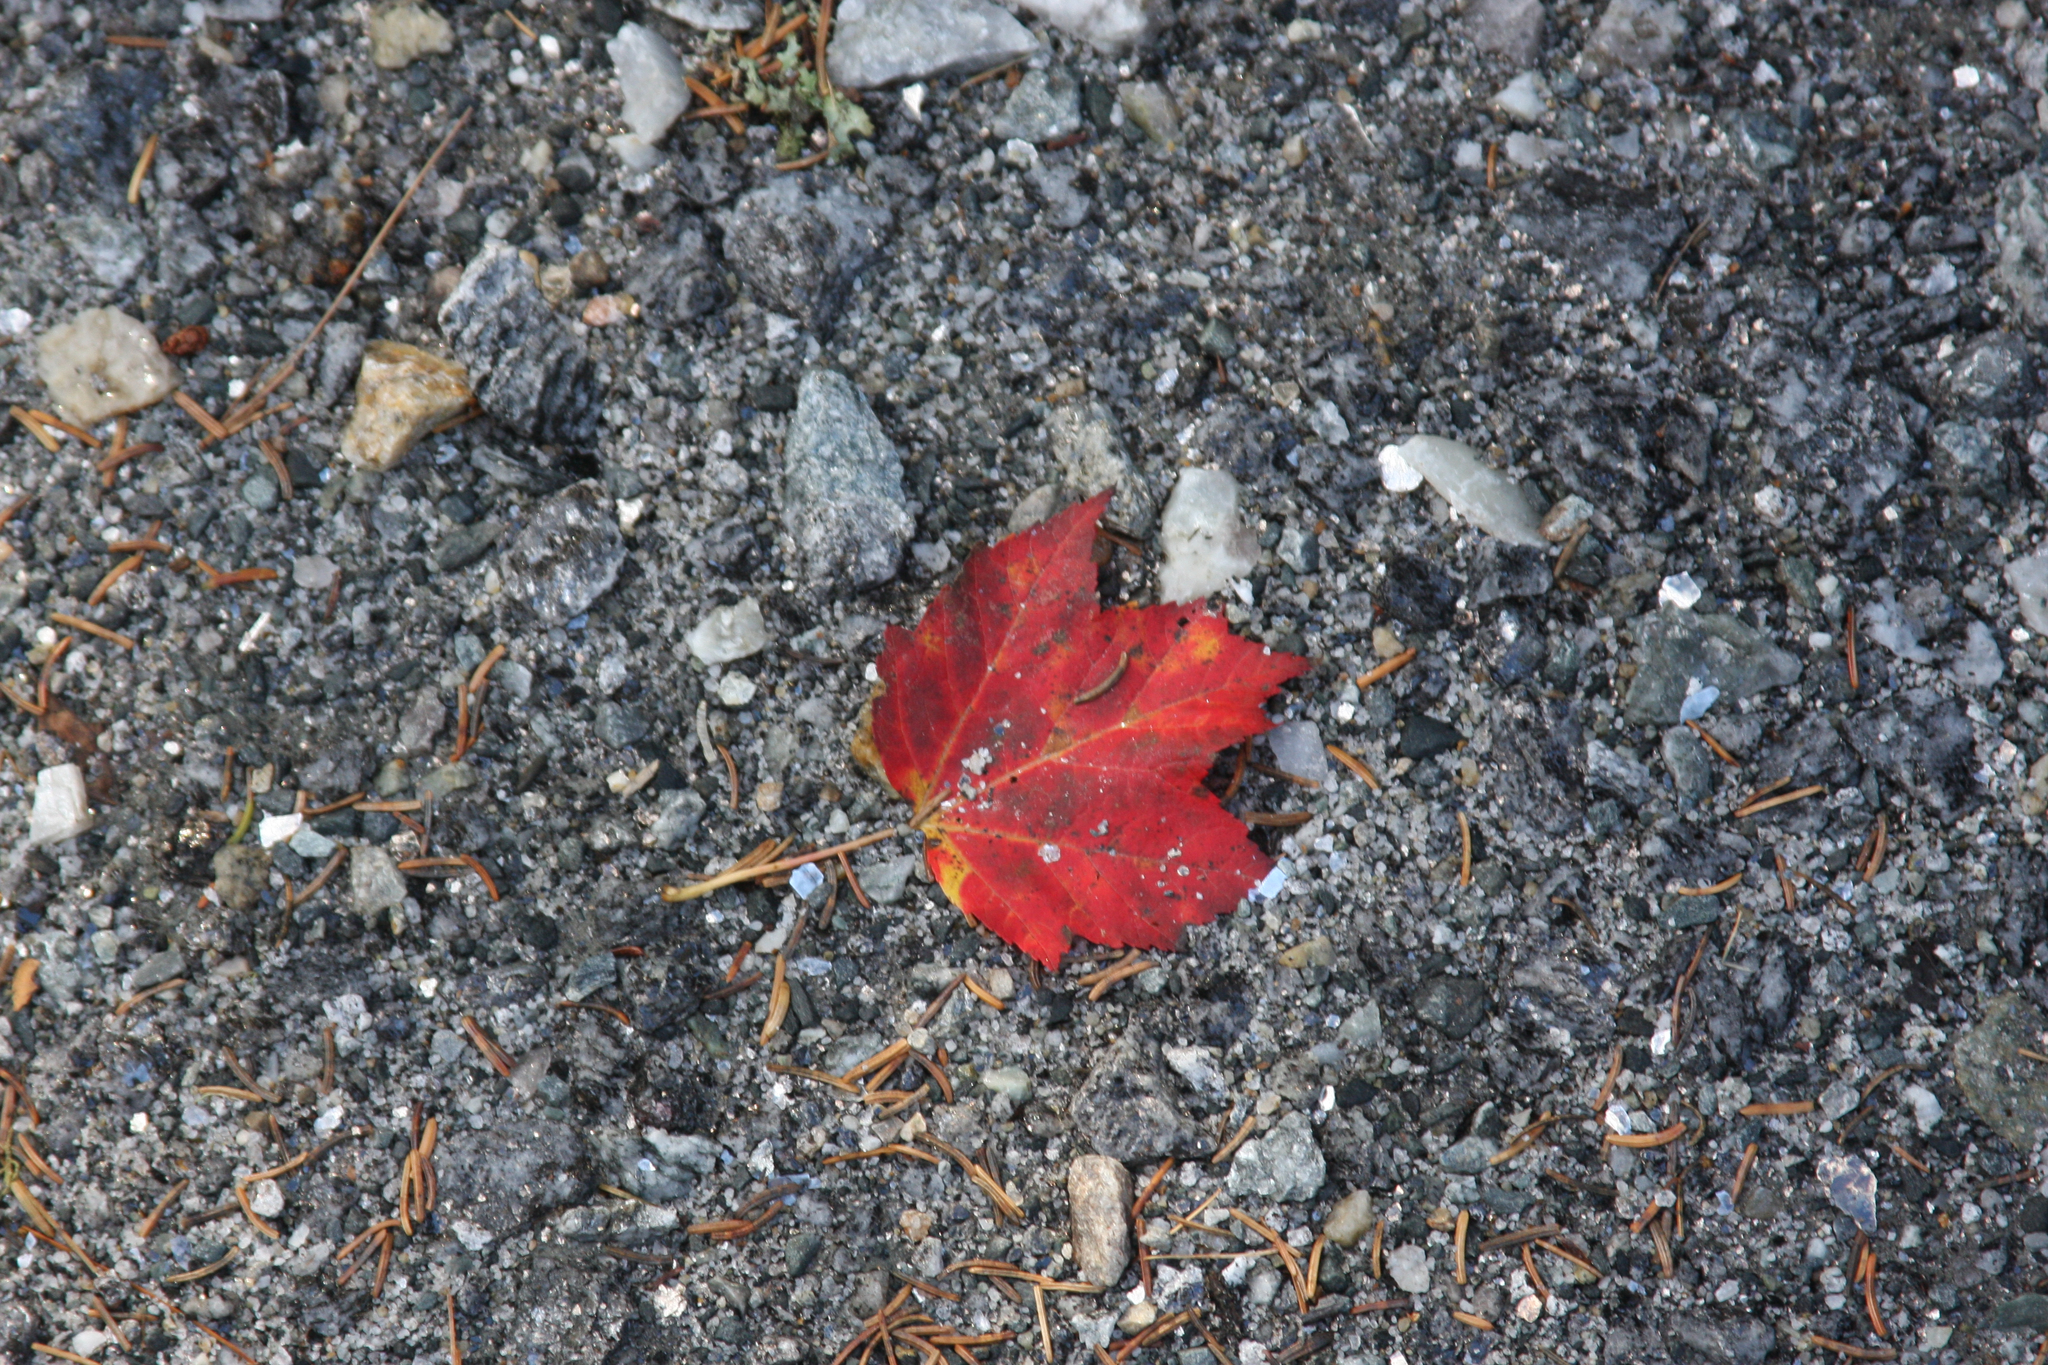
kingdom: Plantae
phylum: Tracheophyta
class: Magnoliopsida
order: Sapindales
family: Sapindaceae
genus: Acer
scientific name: Acer rubrum
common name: Red maple
